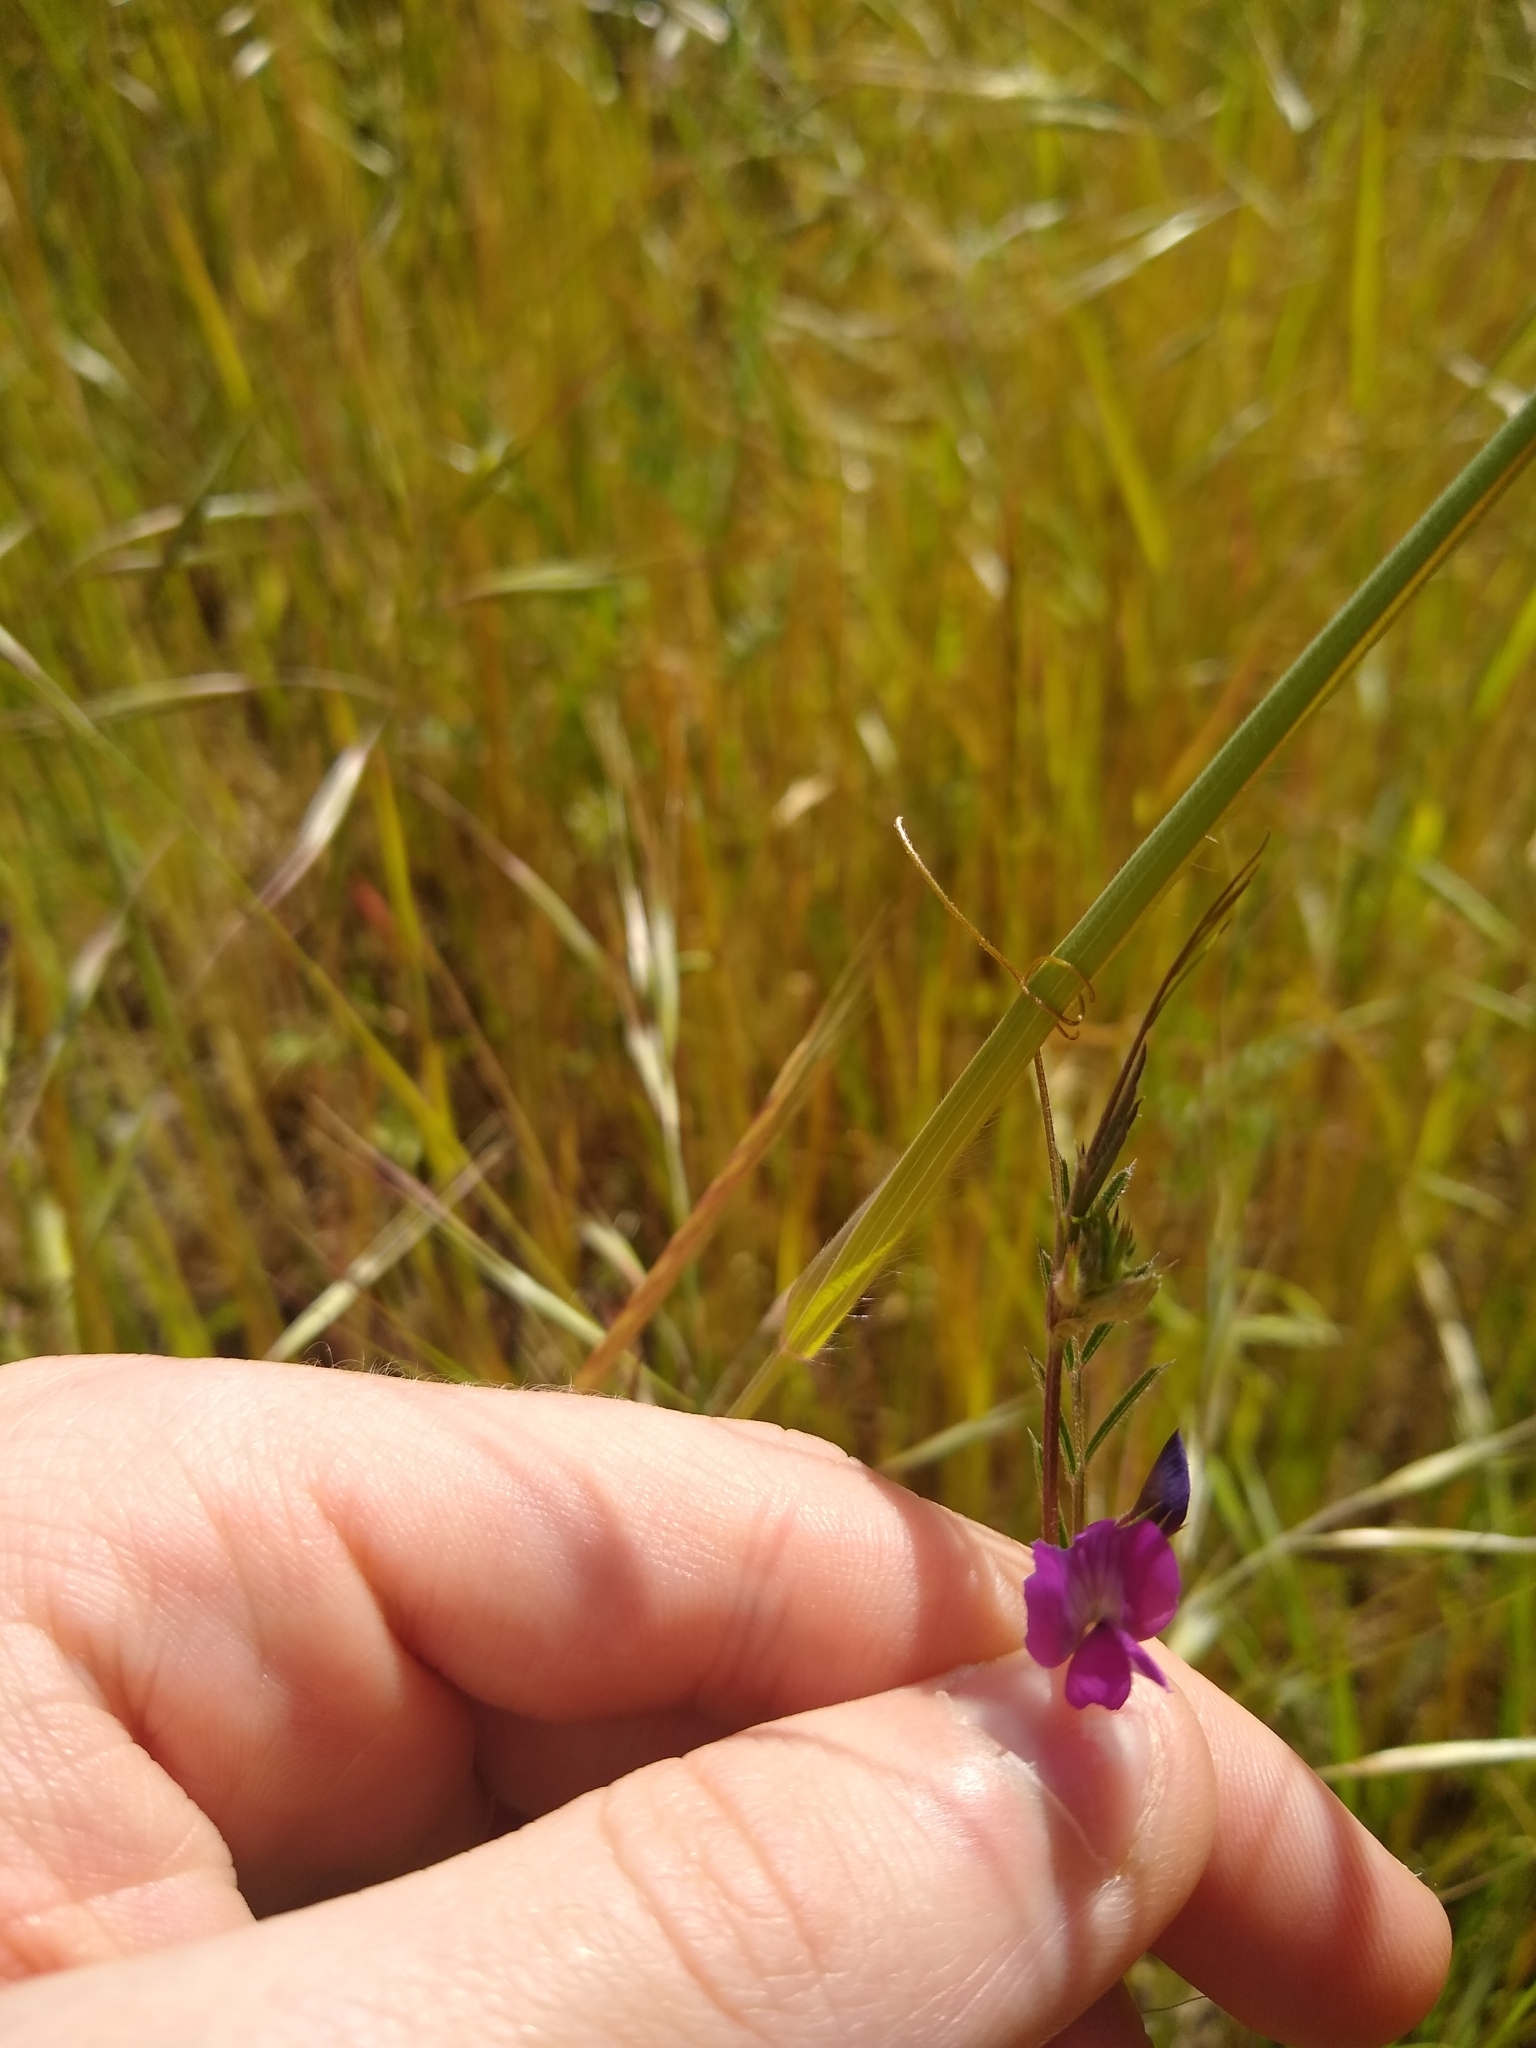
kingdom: Plantae
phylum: Tracheophyta
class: Magnoliopsida
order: Fabales
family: Fabaceae
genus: Vicia
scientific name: Vicia sativa
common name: Garden vetch
